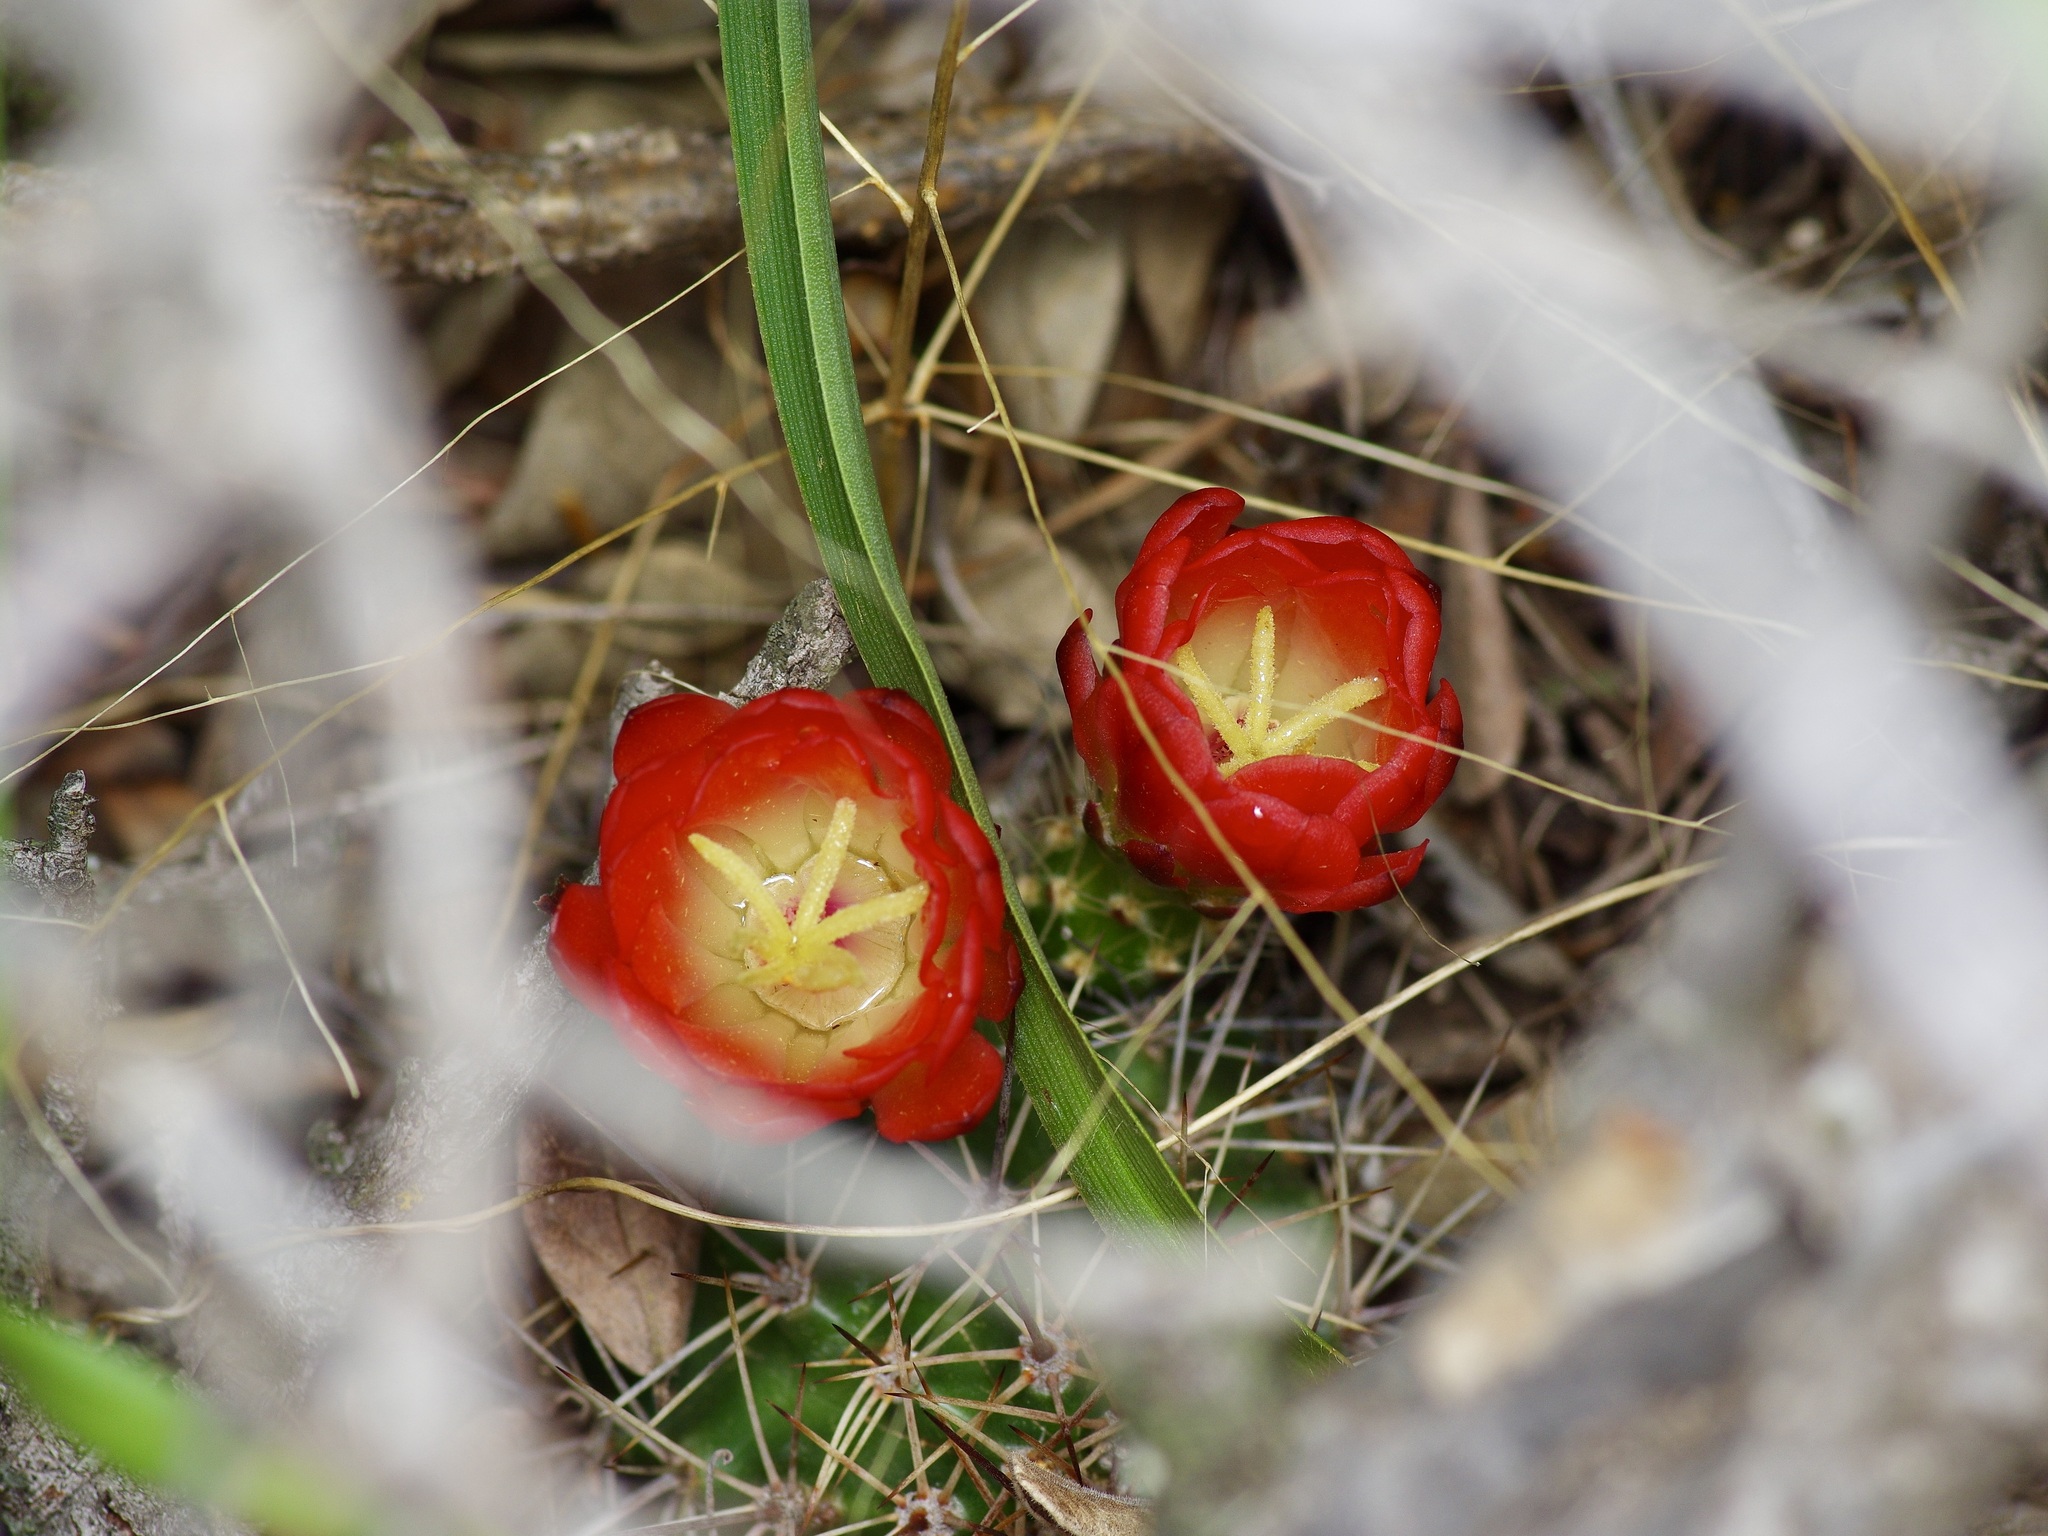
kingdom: Plantae
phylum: Tracheophyta
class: Magnoliopsida
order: Caryophyllales
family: Cactaceae
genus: Echinocereus
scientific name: Echinocereus coccineus
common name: Scarlet hedgehog cactus
